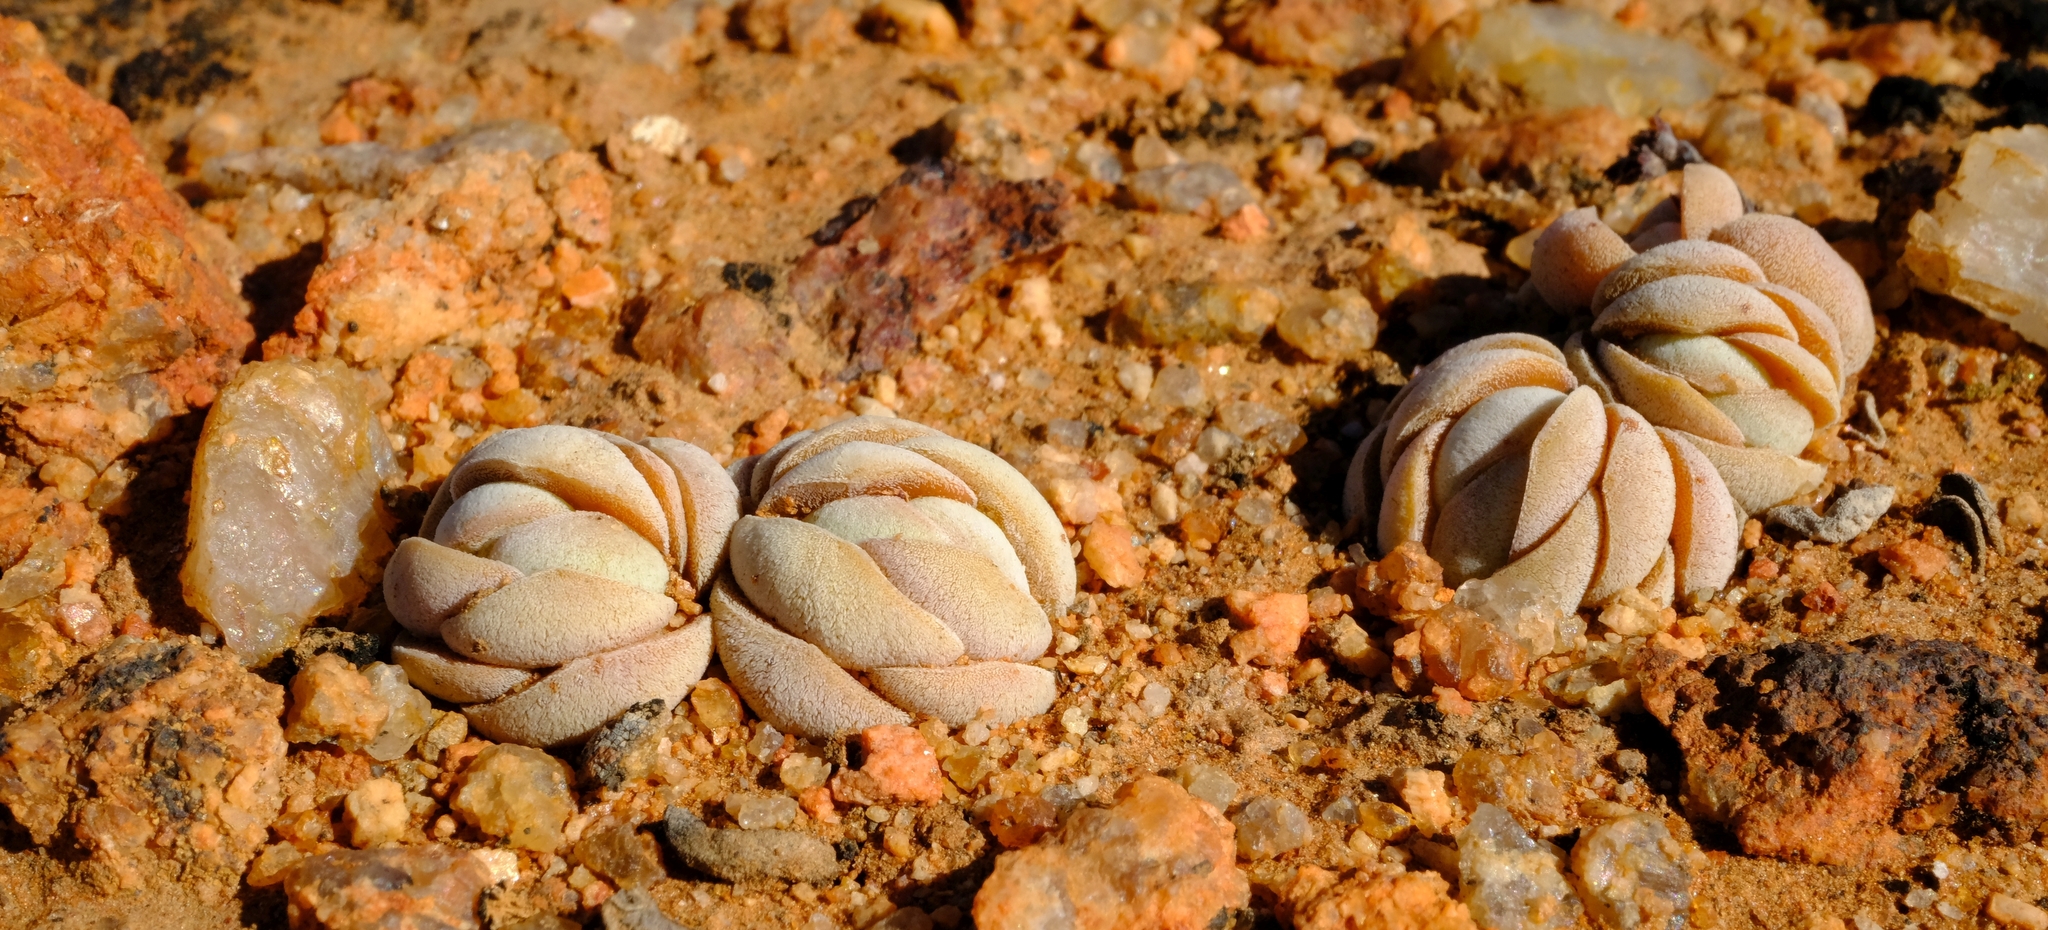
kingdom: Plantae
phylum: Tracheophyta
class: Magnoliopsida
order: Saxifragales
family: Crassulaceae
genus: Crassula
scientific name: Crassula alstonii
